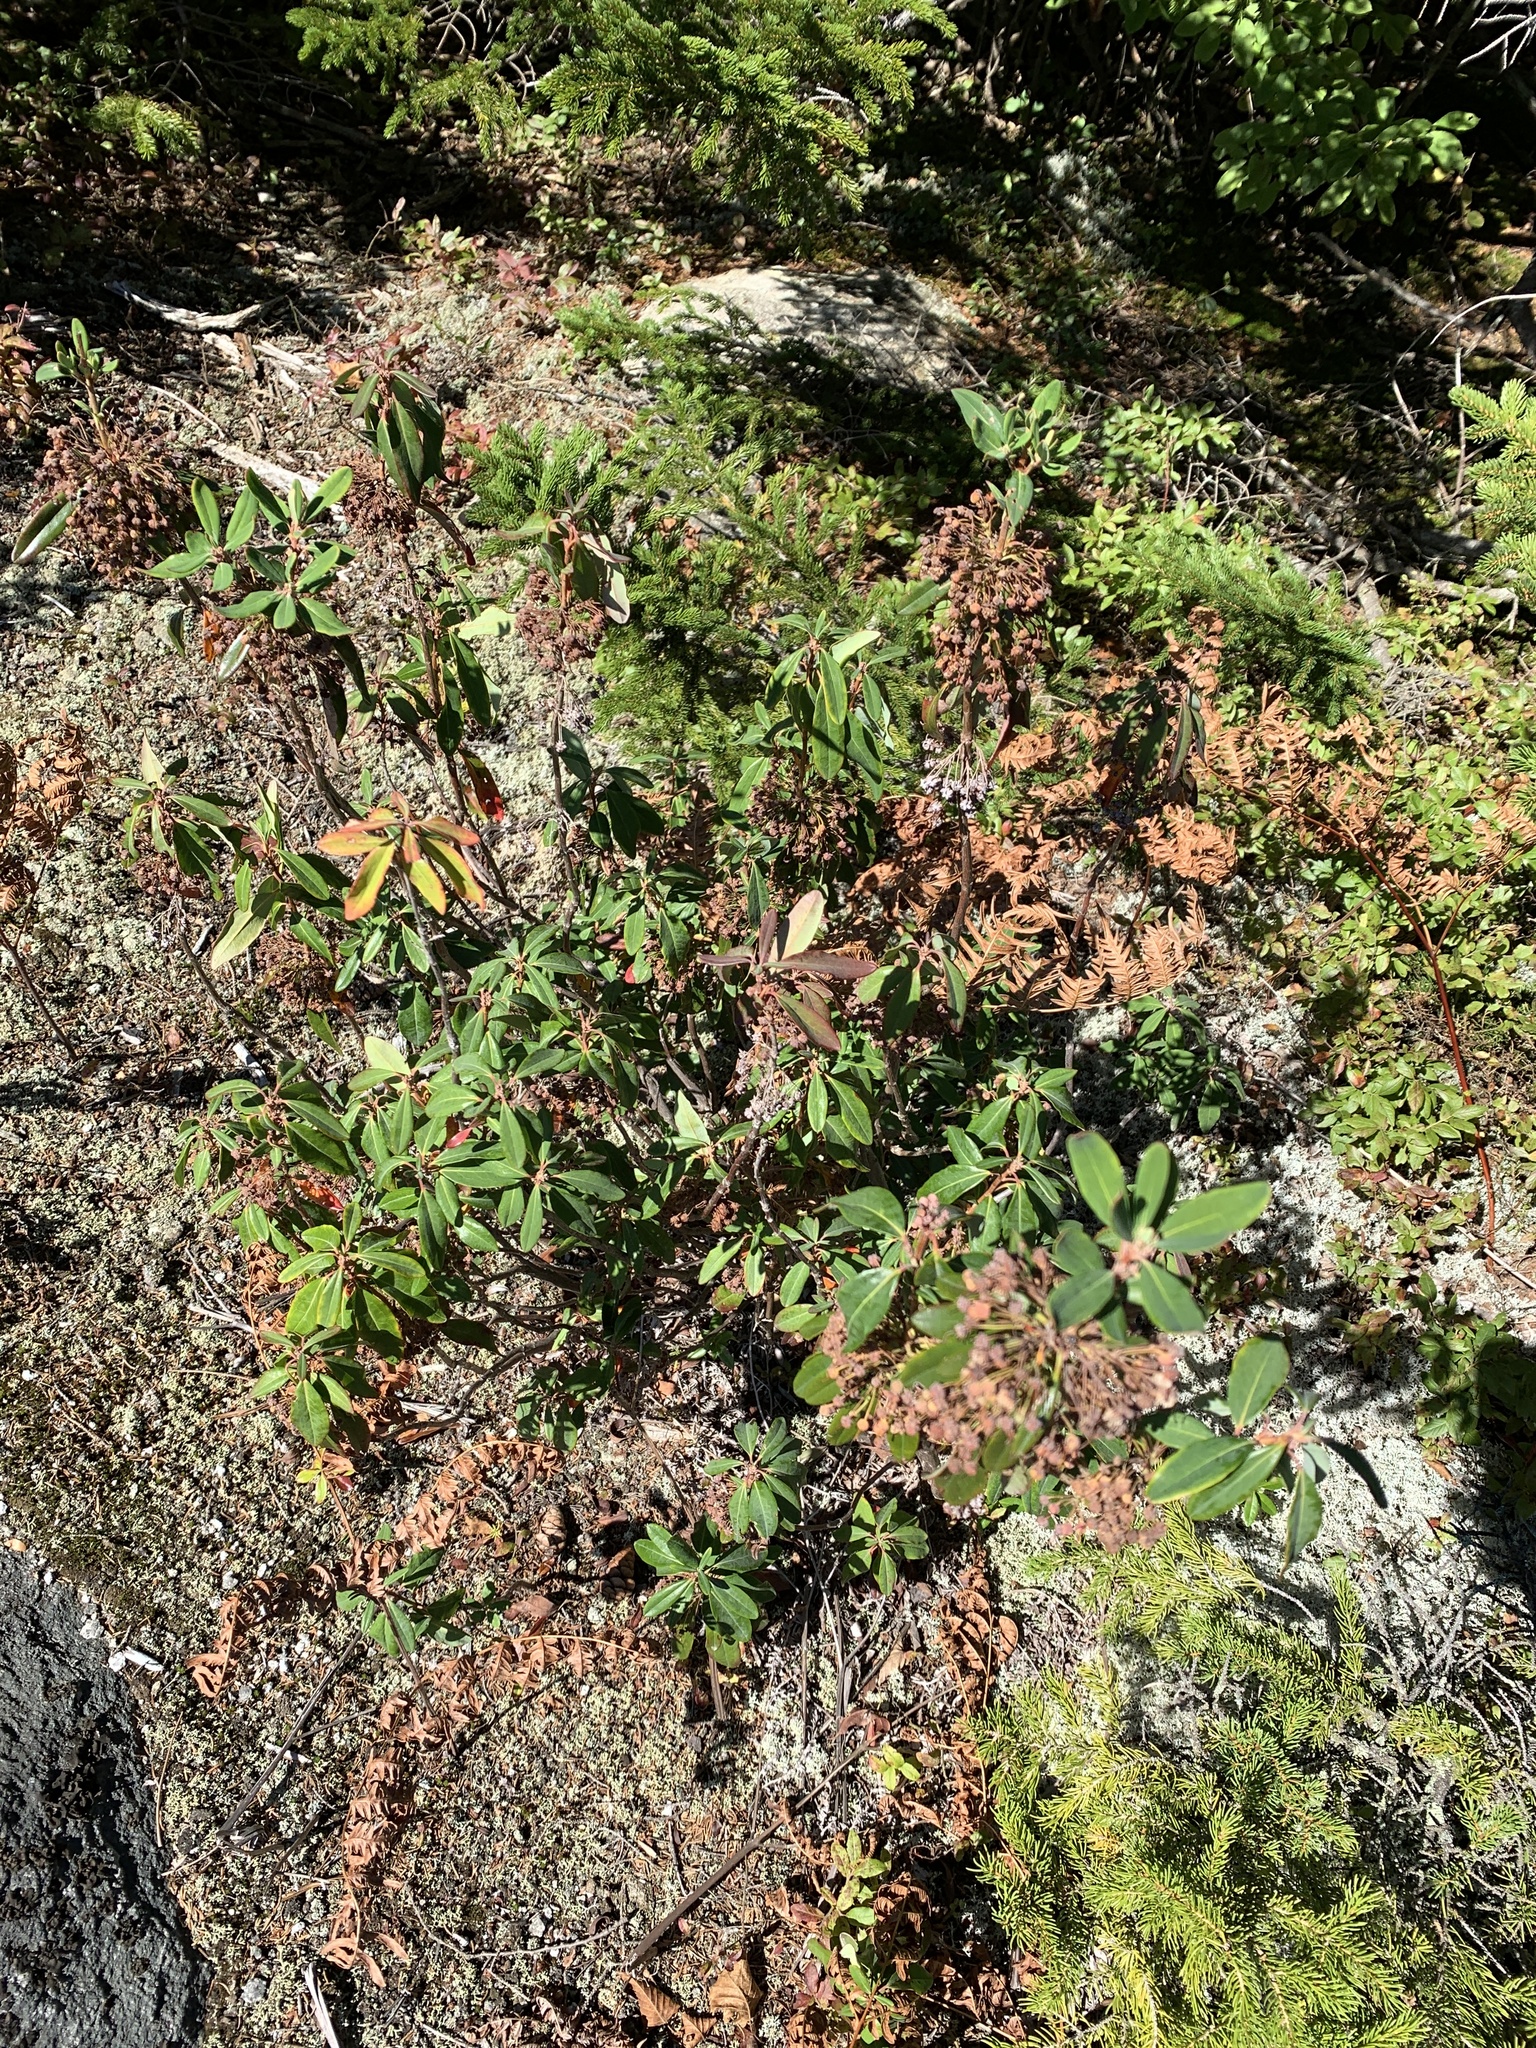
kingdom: Plantae
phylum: Tracheophyta
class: Magnoliopsida
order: Ericales
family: Ericaceae
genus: Kalmia
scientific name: Kalmia angustifolia
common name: Sheep-laurel
